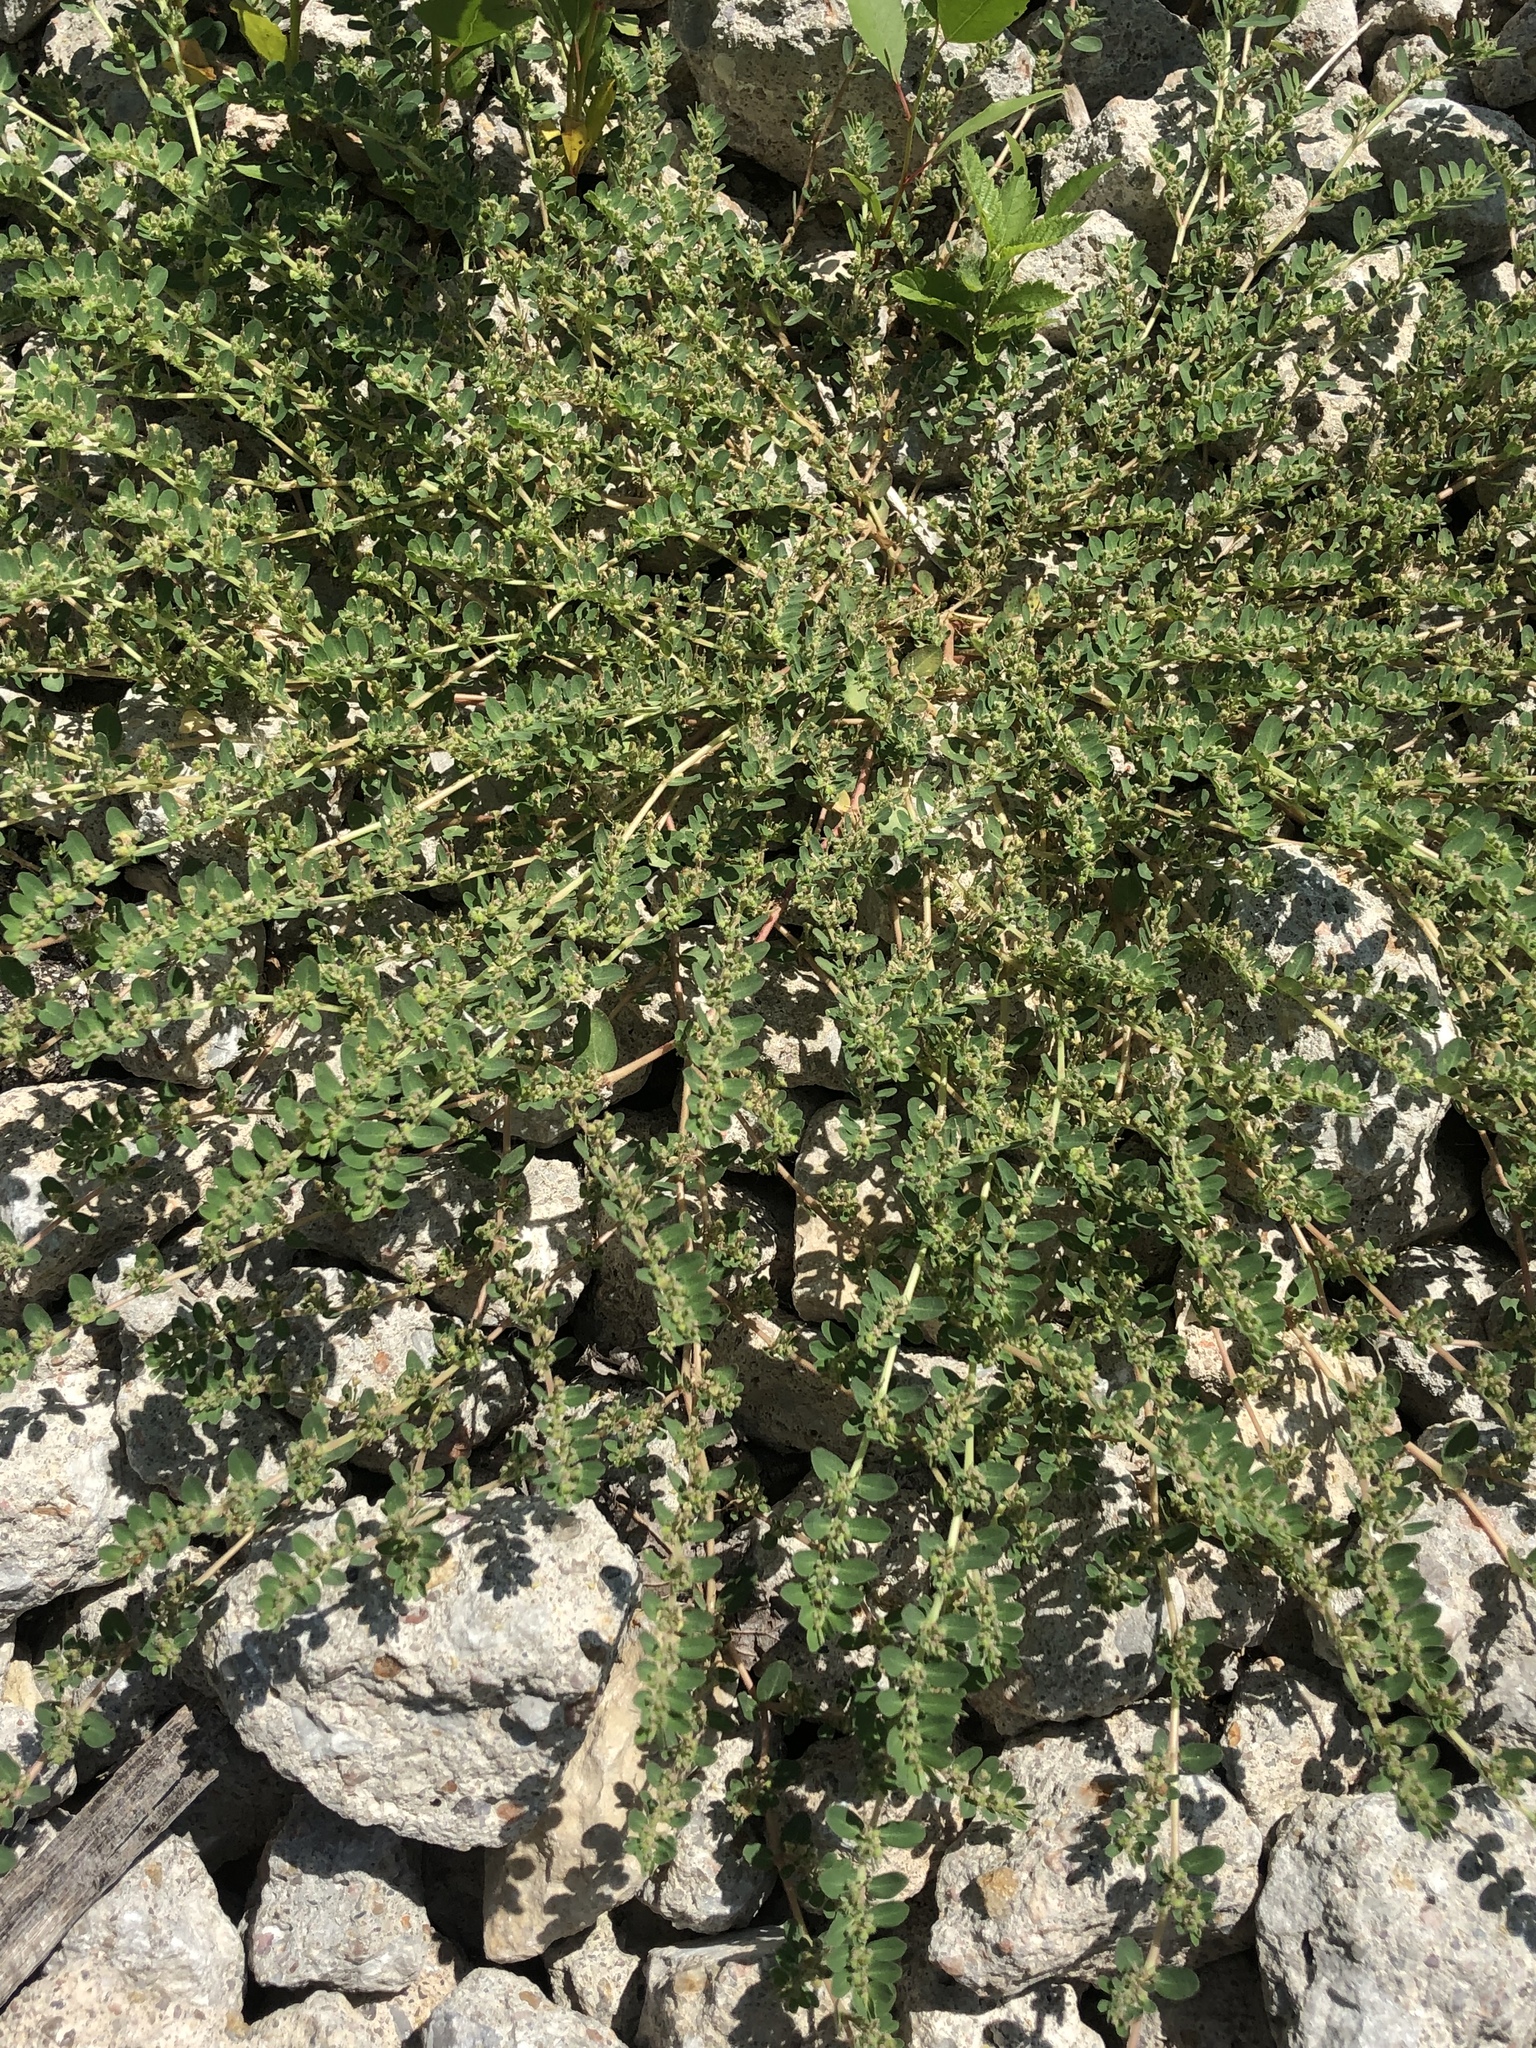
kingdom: Plantae
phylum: Tracheophyta
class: Magnoliopsida
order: Malpighiales
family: Euphorbiaceae
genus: Euphorbia
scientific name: Euphorbia prostrata
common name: Prostrate sandmat
